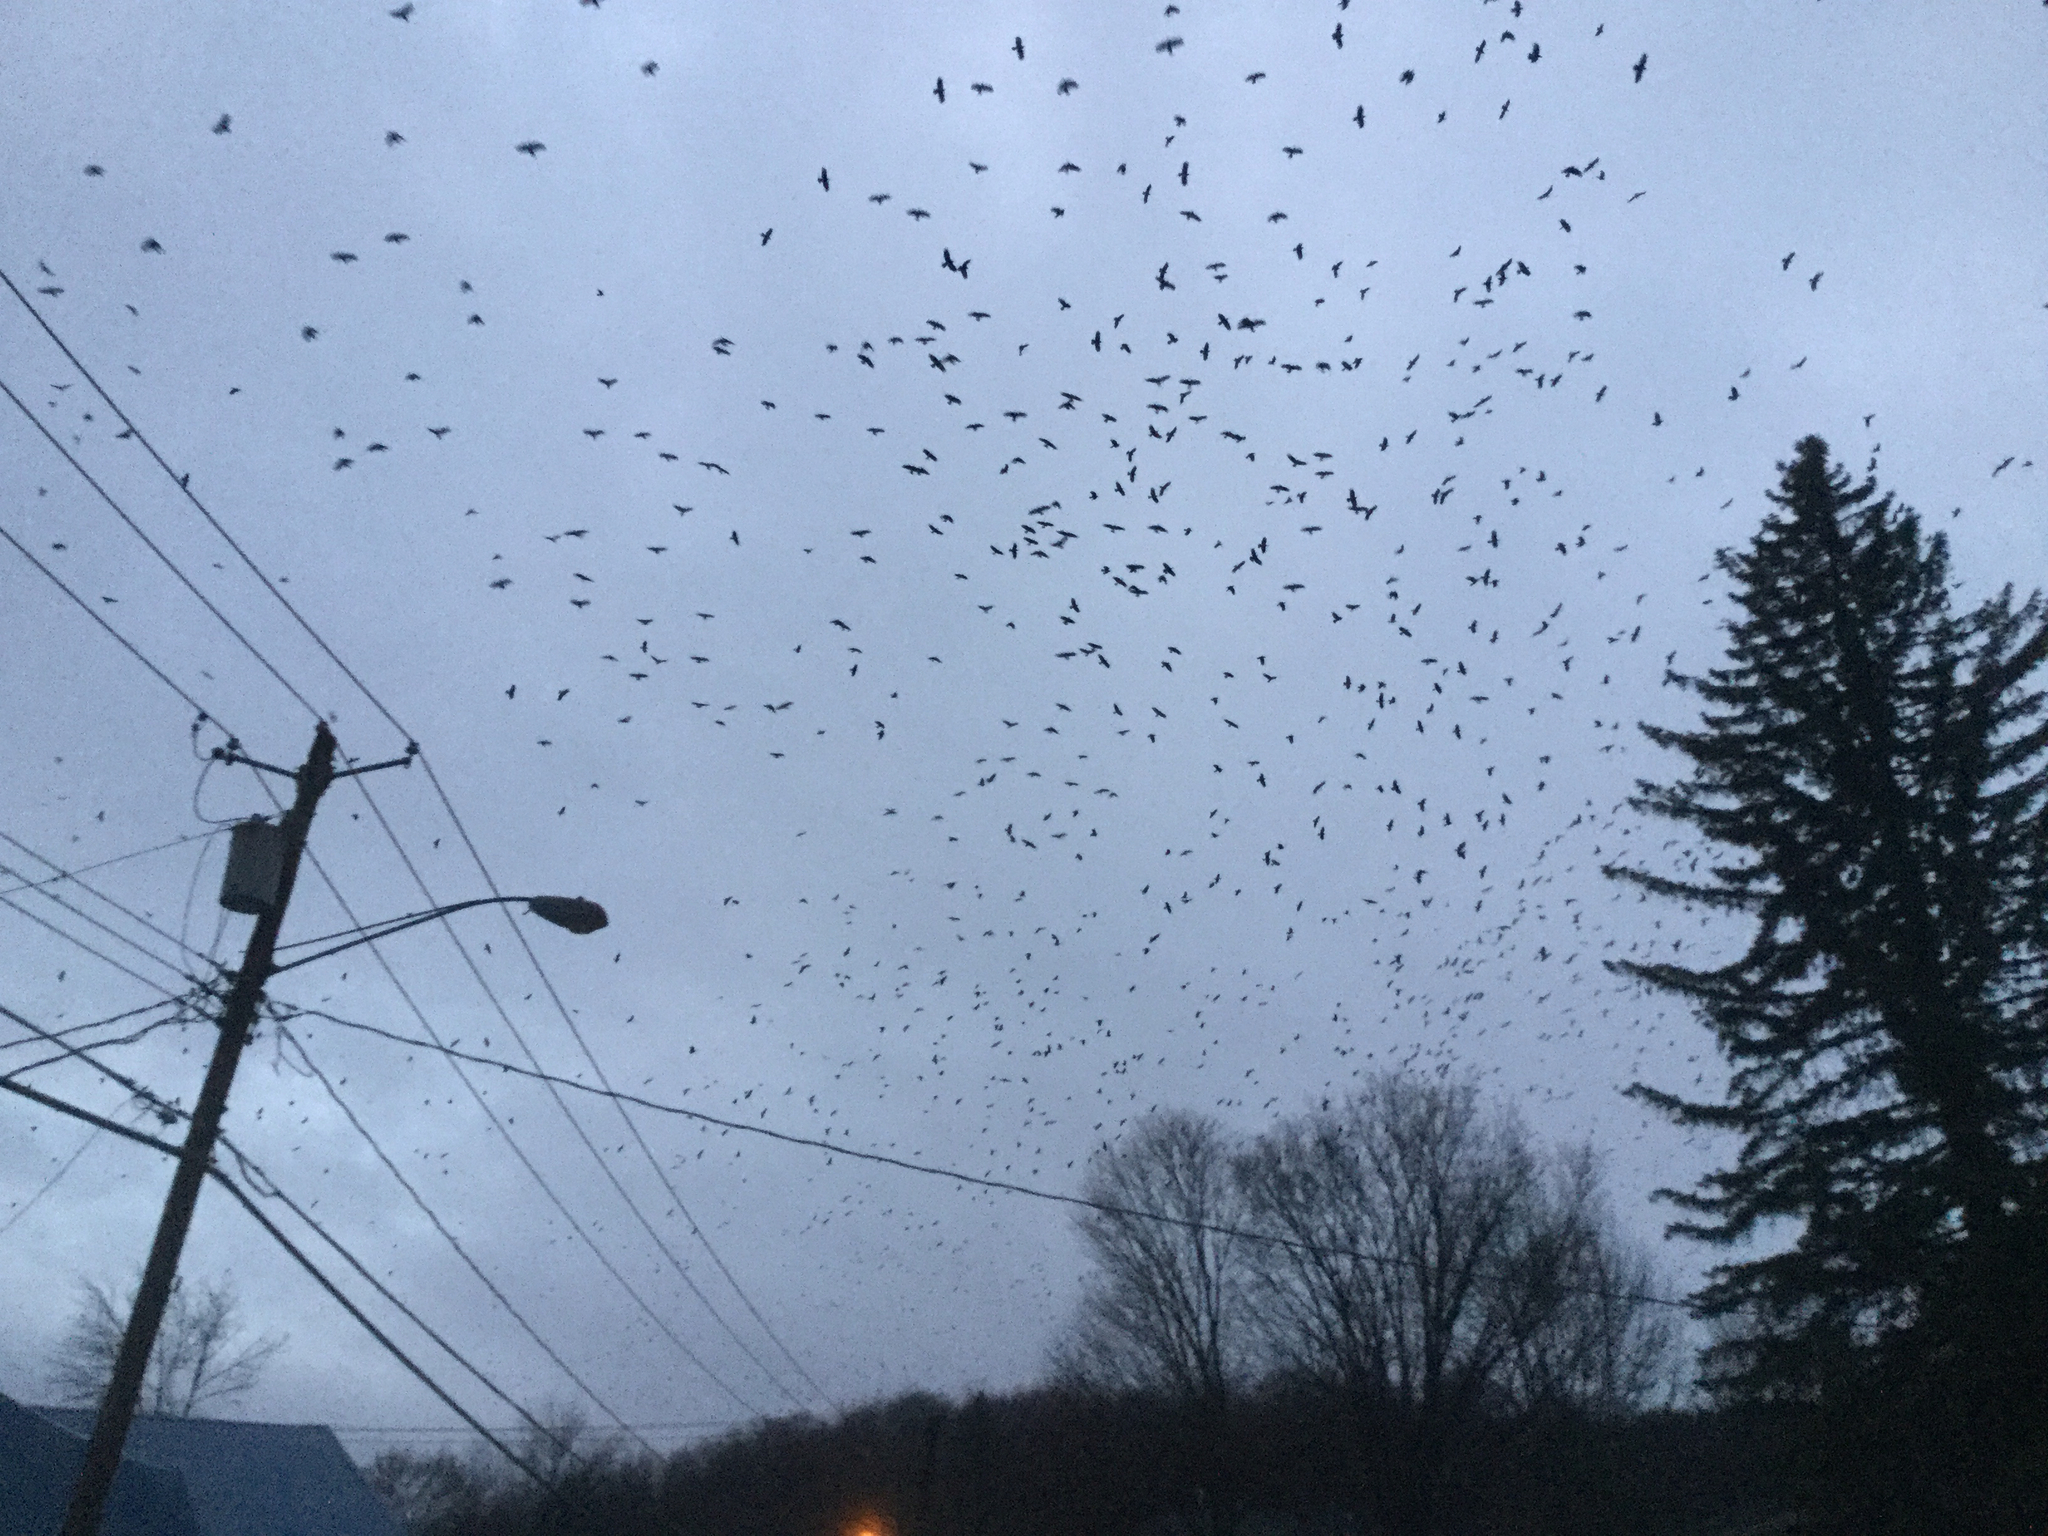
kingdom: Animalia
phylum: Chordata
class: Aves
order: Passeriformes
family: Corvidae
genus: Corvus
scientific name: Corvus brachyrhynchos
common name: American crow
